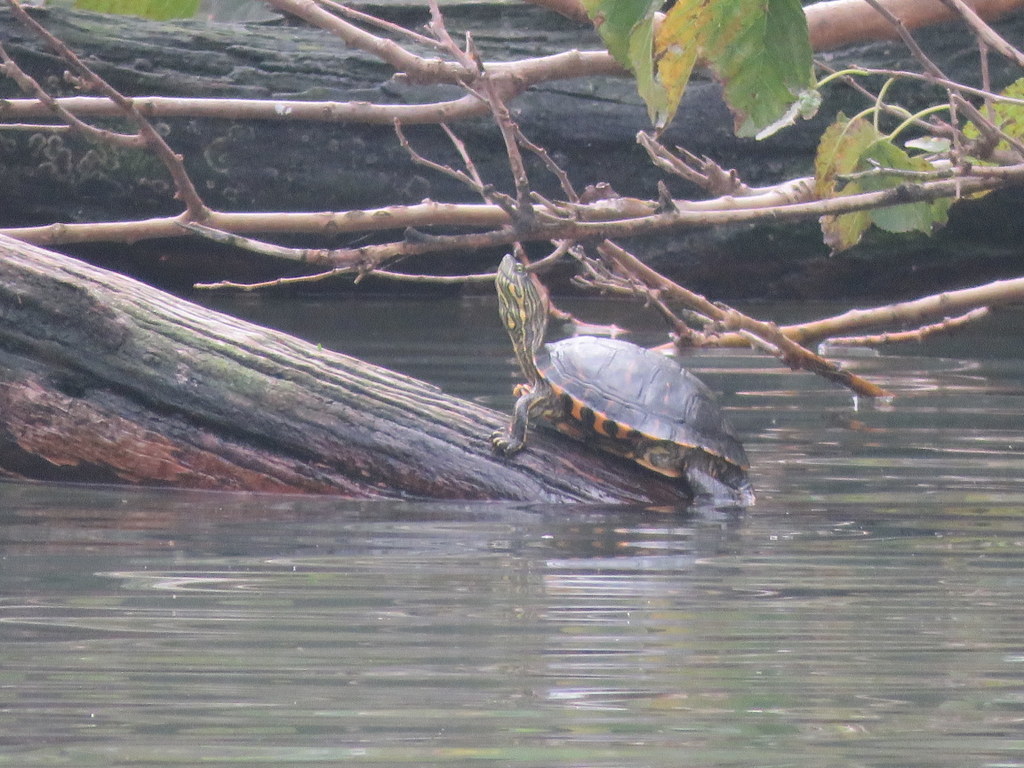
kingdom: Animalia
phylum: Chordata
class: Testudines
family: Emydidae
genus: Trachemys
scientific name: Trachemys dorbigni
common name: Black-bellied slider
